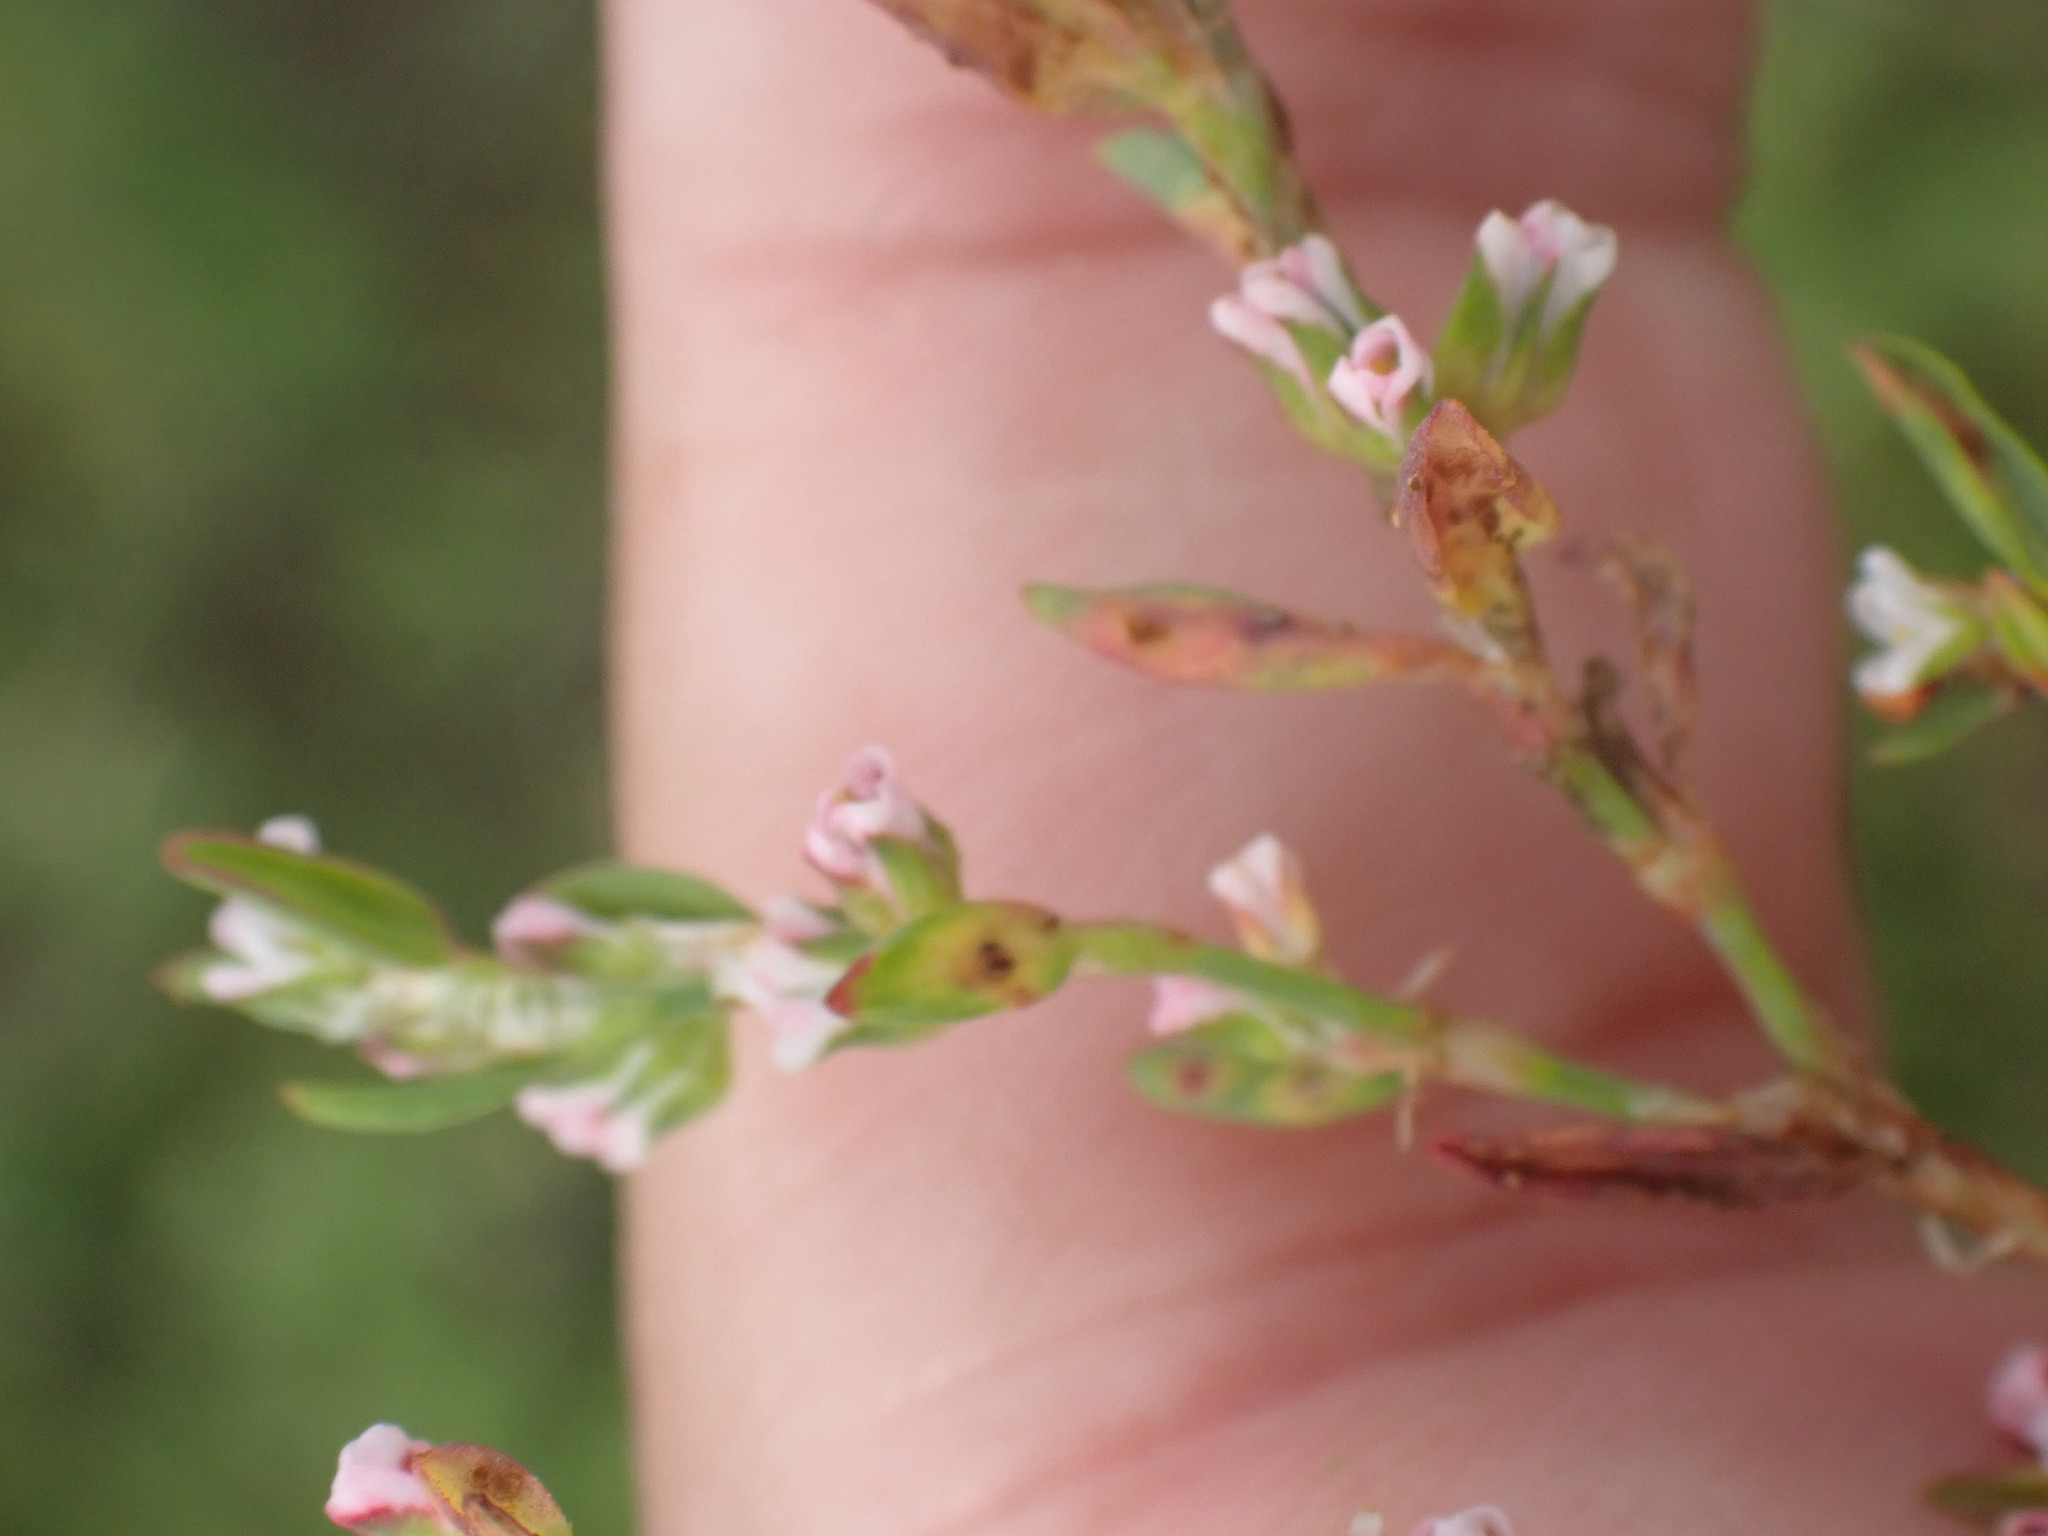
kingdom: Plantae
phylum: Tracheophyta
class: Magnoliopsida
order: Caryophyllales
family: Polygonaceae
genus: Polygonum
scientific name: Polygonum aviculare
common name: Prostrate knotweed
